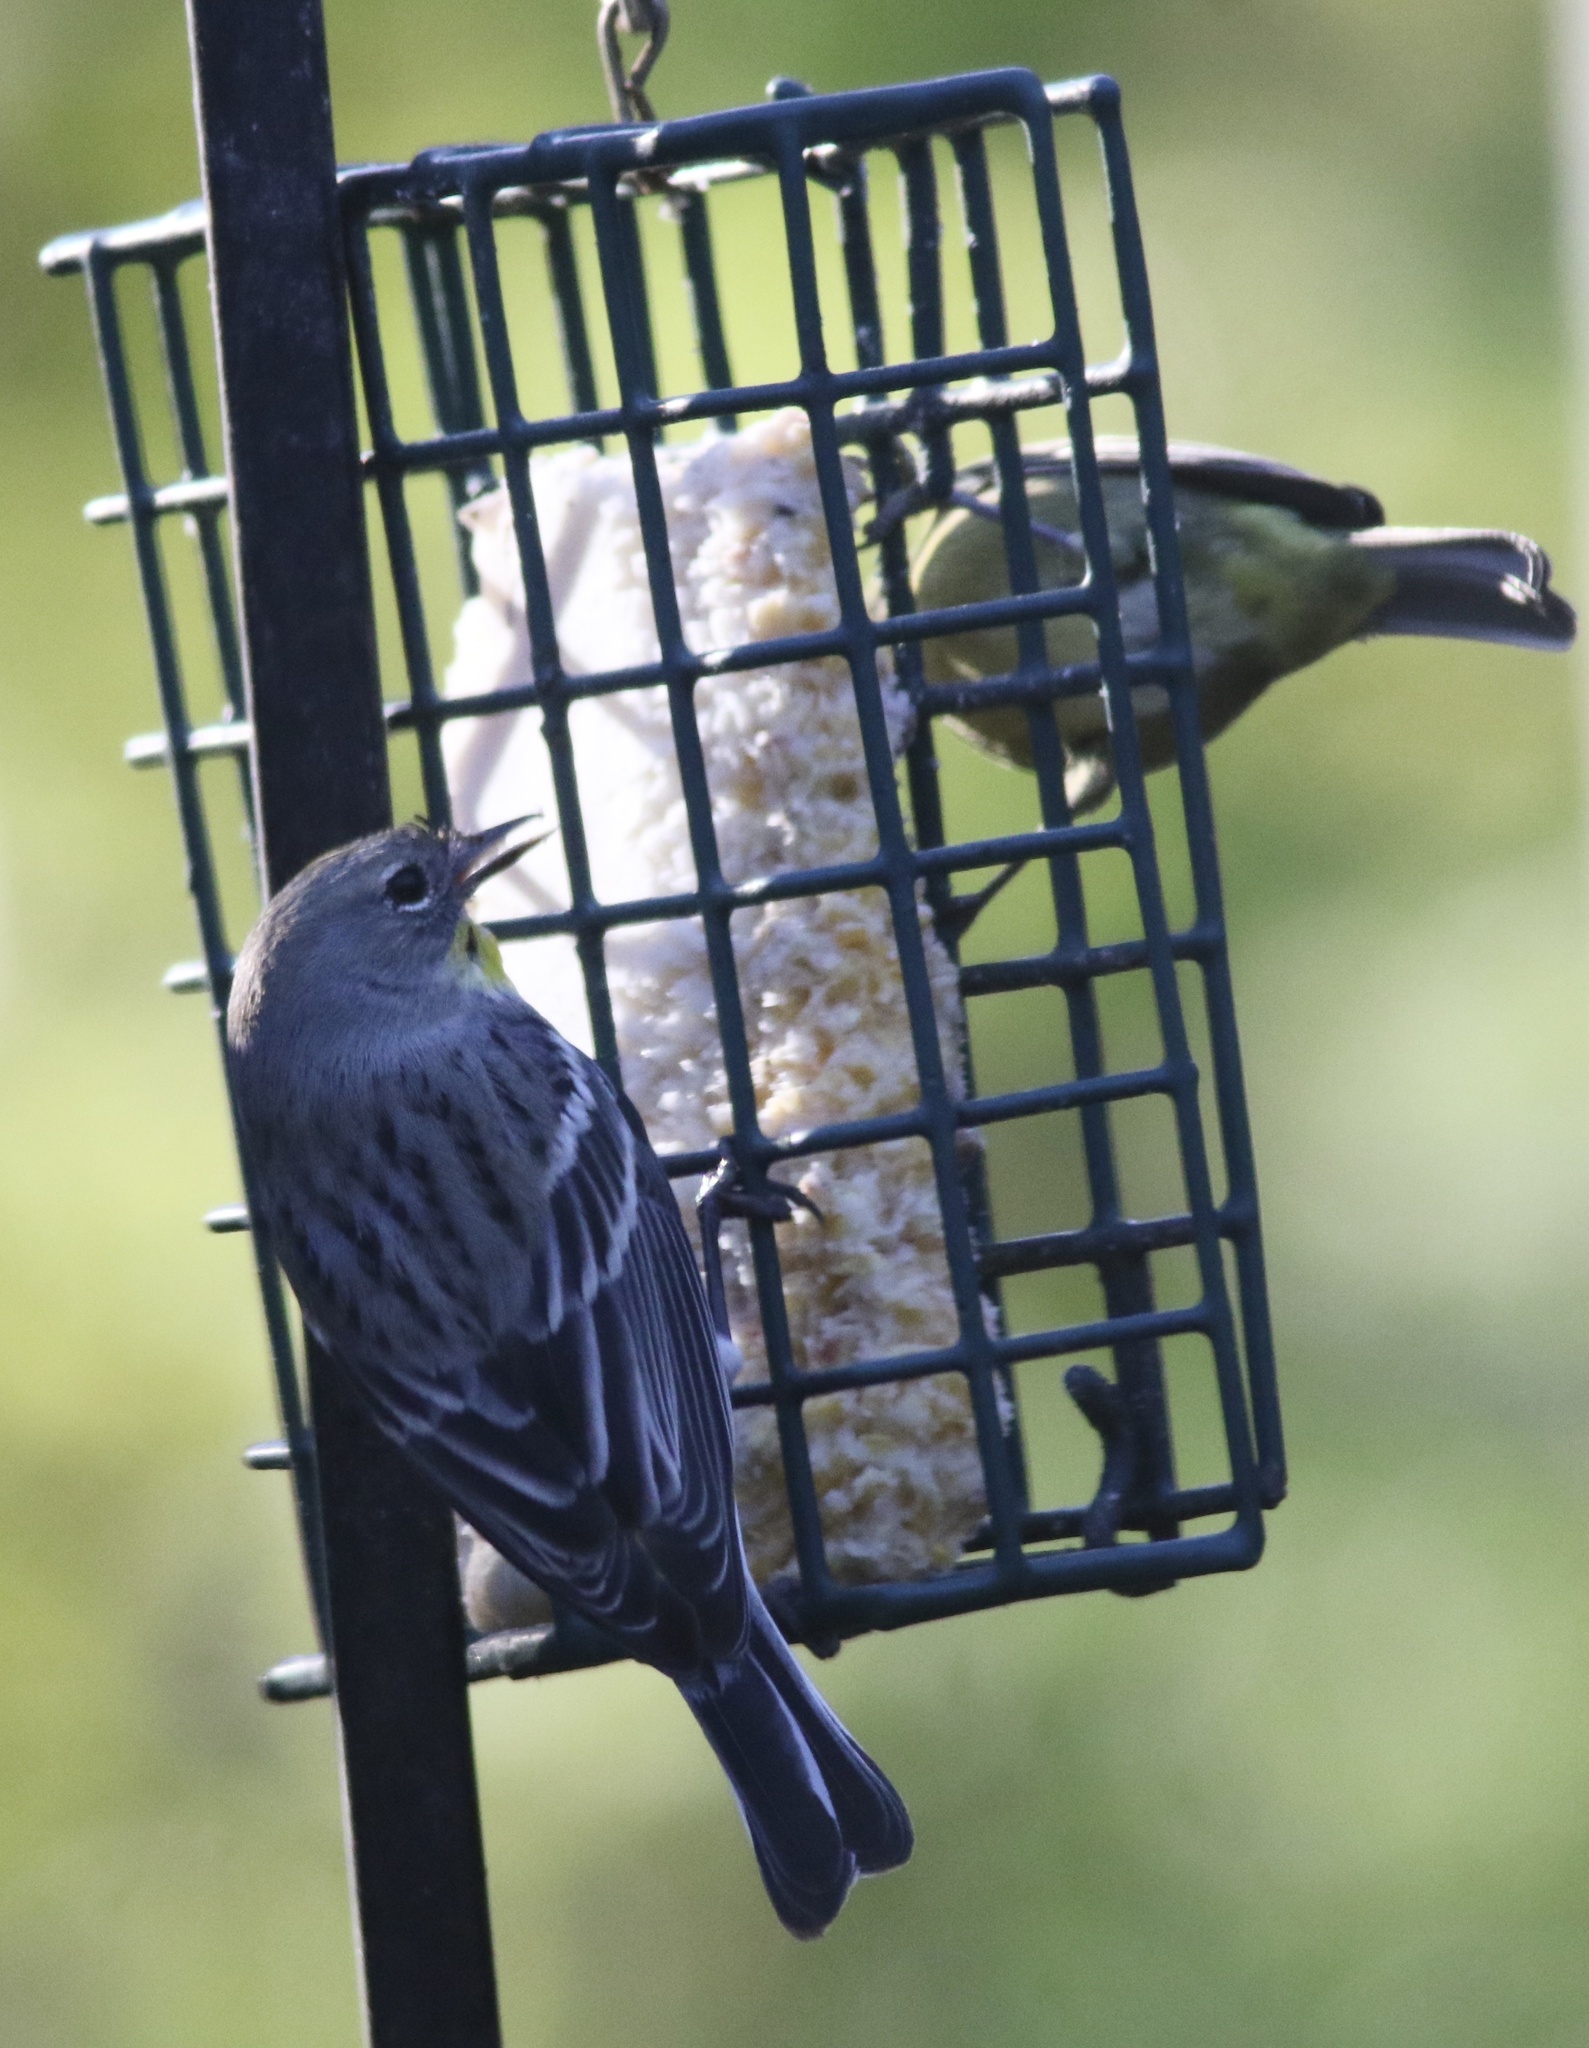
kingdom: Animalia
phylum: Chordata
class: Aves
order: Passeriformes
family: Parulidae
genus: Setophaga
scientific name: Setophaga coronata
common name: Myrtle warbler
